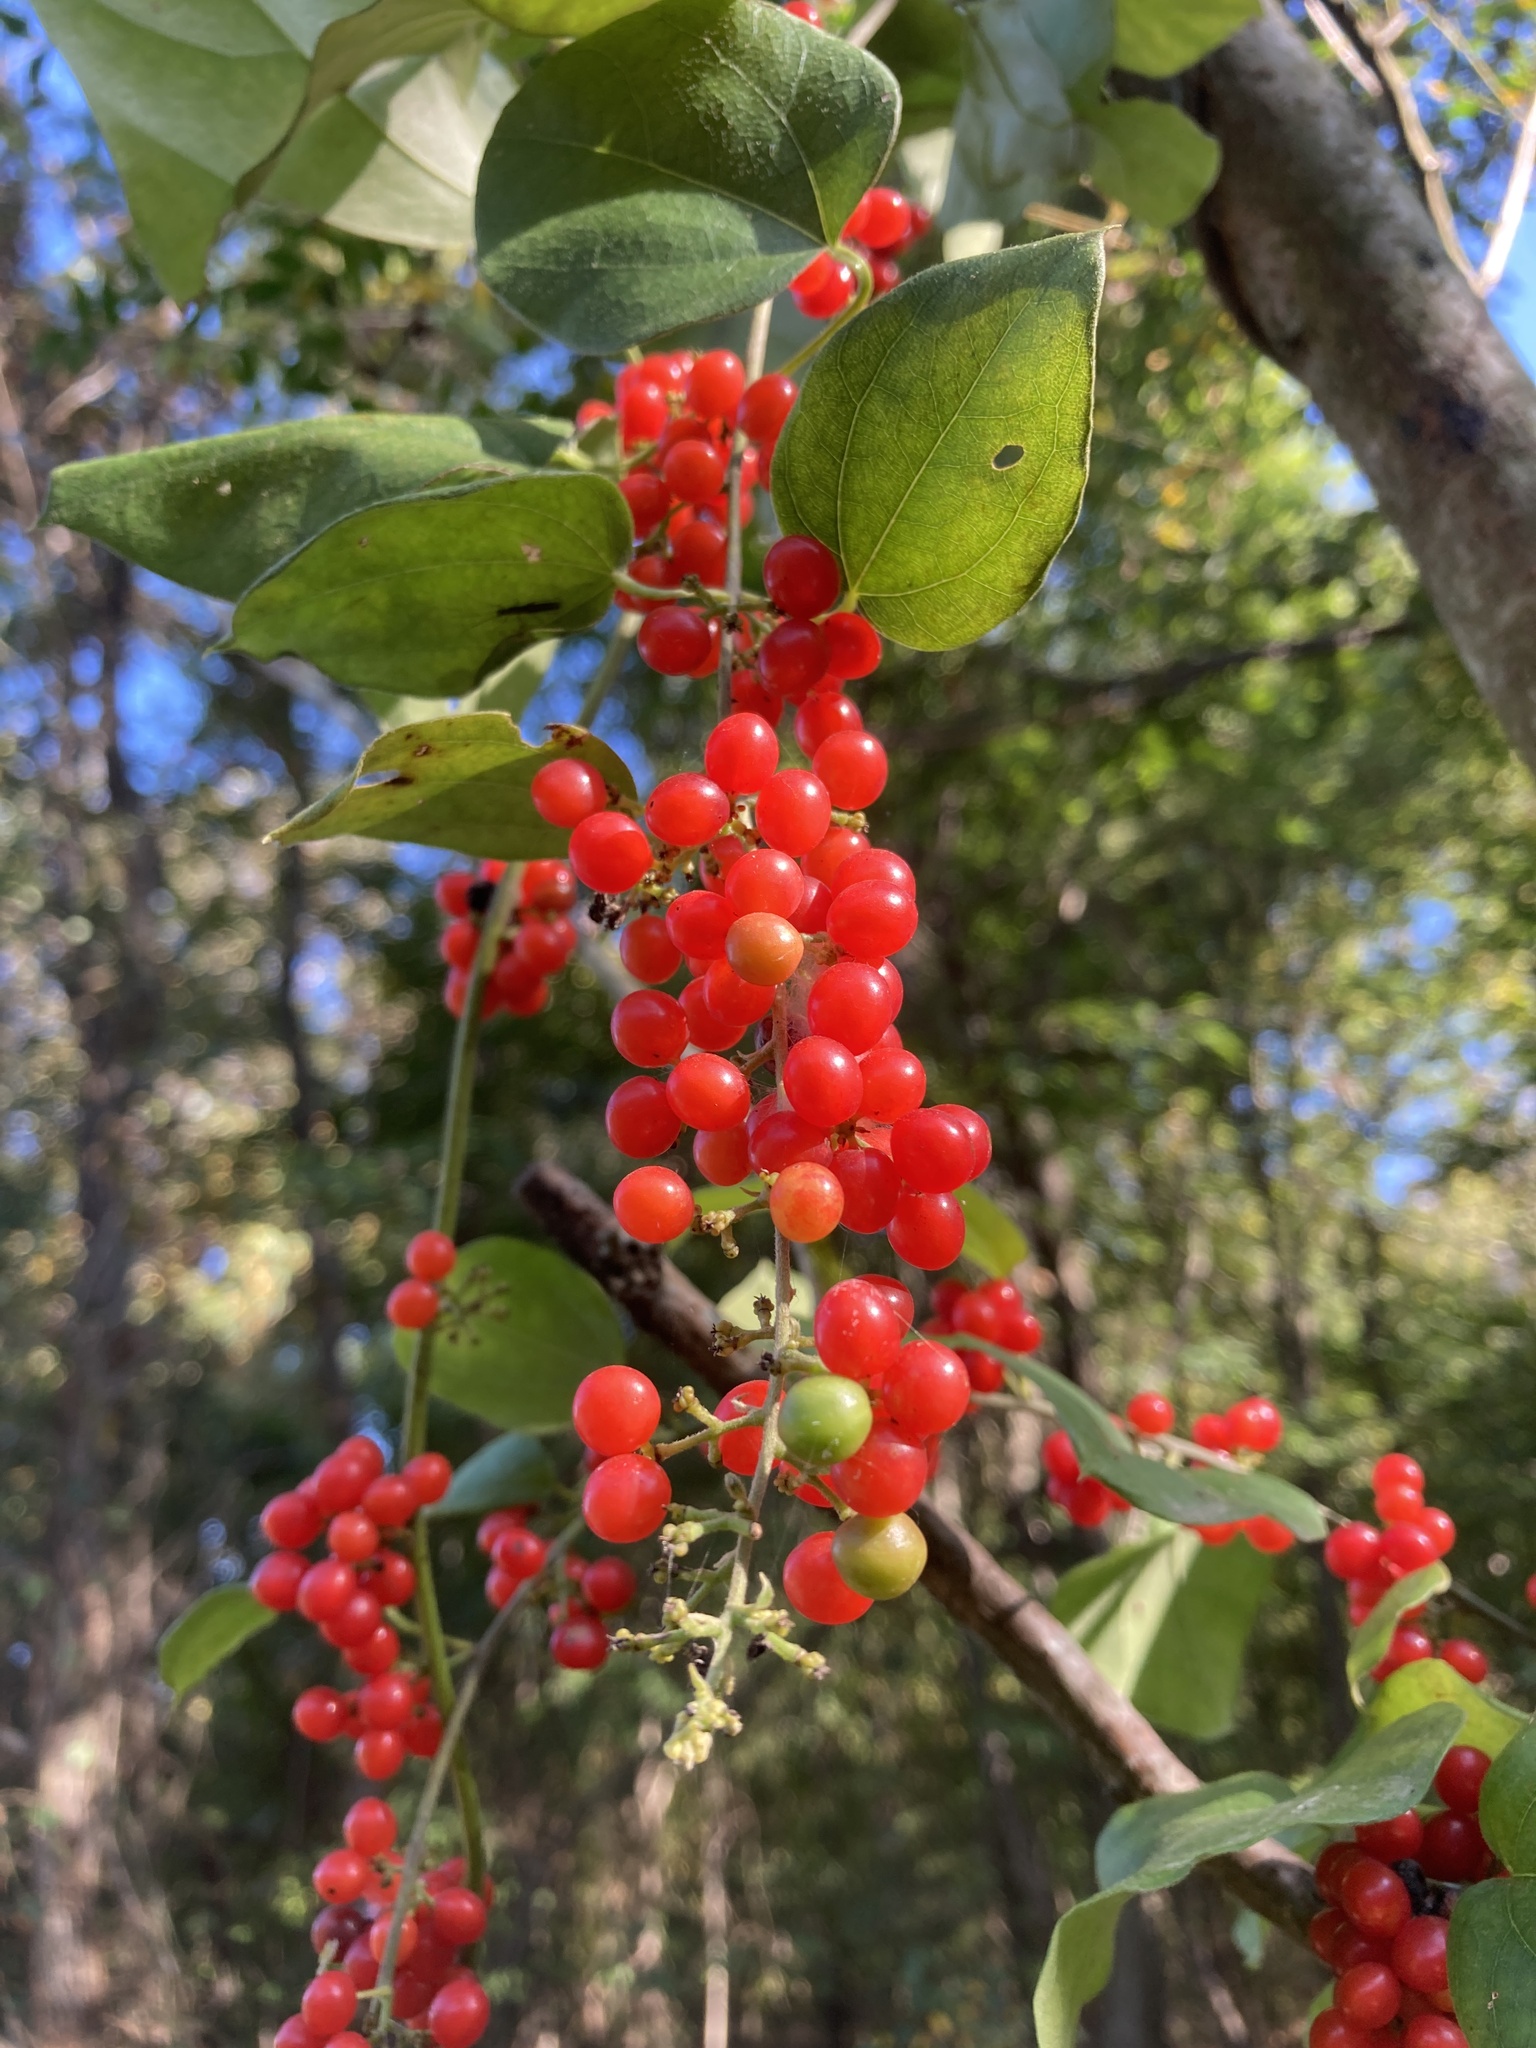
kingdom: Plantae
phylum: Tracheophyta
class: Magnoliopsida
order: Ranunculales
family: Menispermaceae
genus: Cocculus
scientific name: Cocculus carolinus
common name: Carolina moonseed
